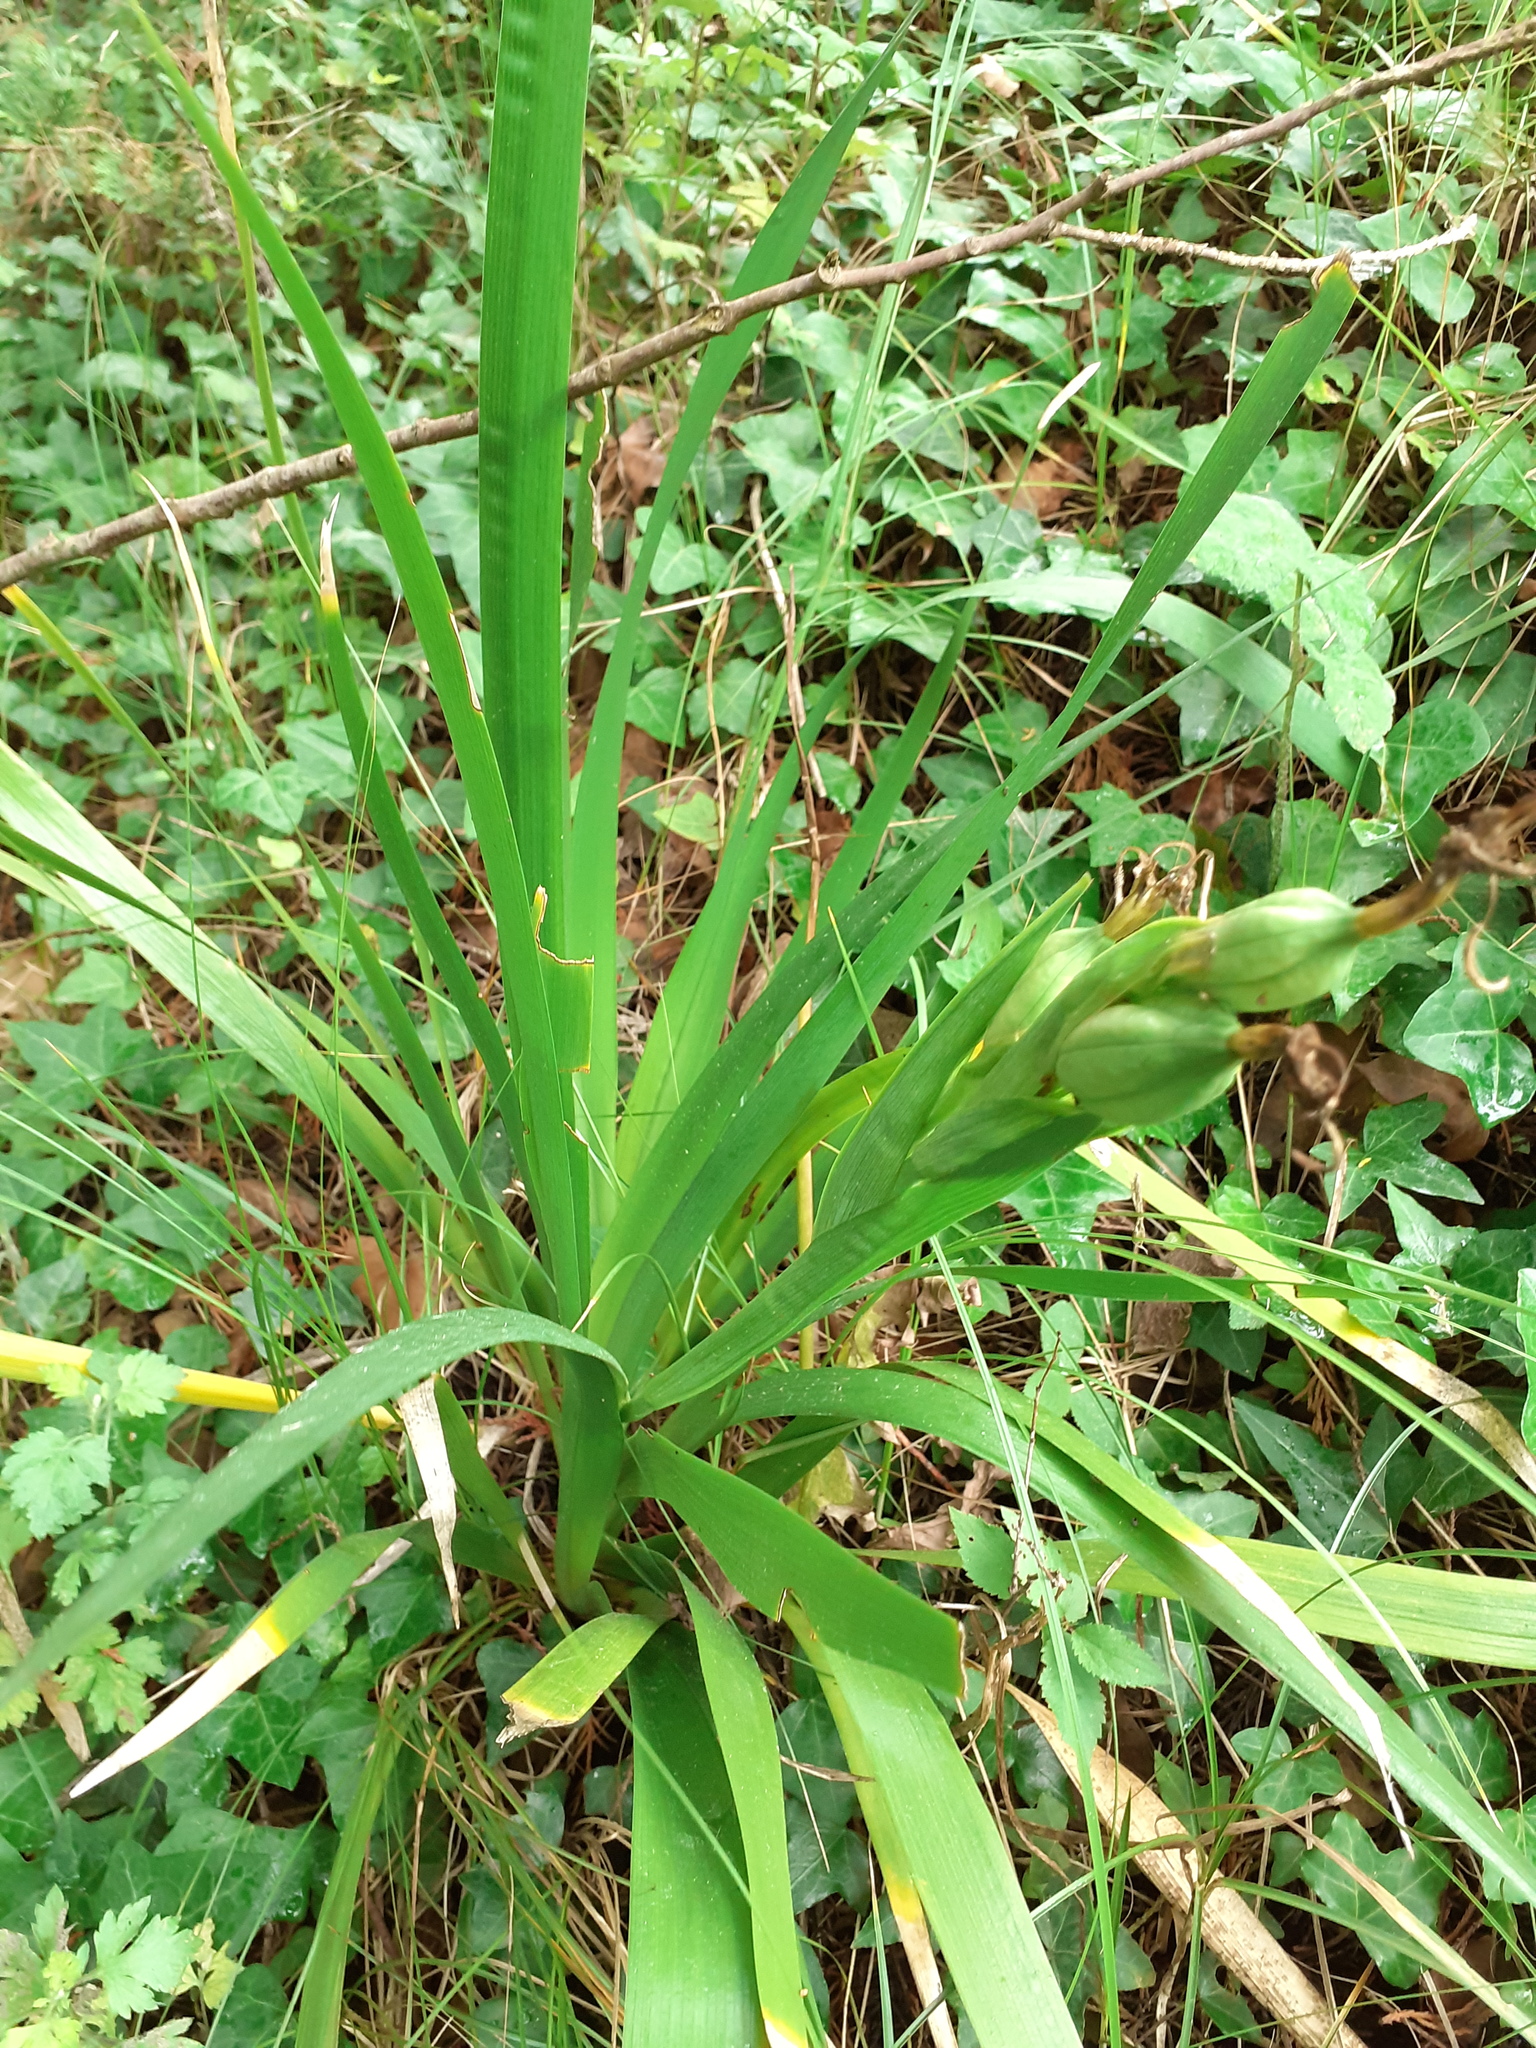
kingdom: Plantae
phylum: Tracheophyta
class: Liliopsida
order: Asparagales
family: Iridaceae
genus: Iris
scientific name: Iris foetidissima
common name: Stinking iris
